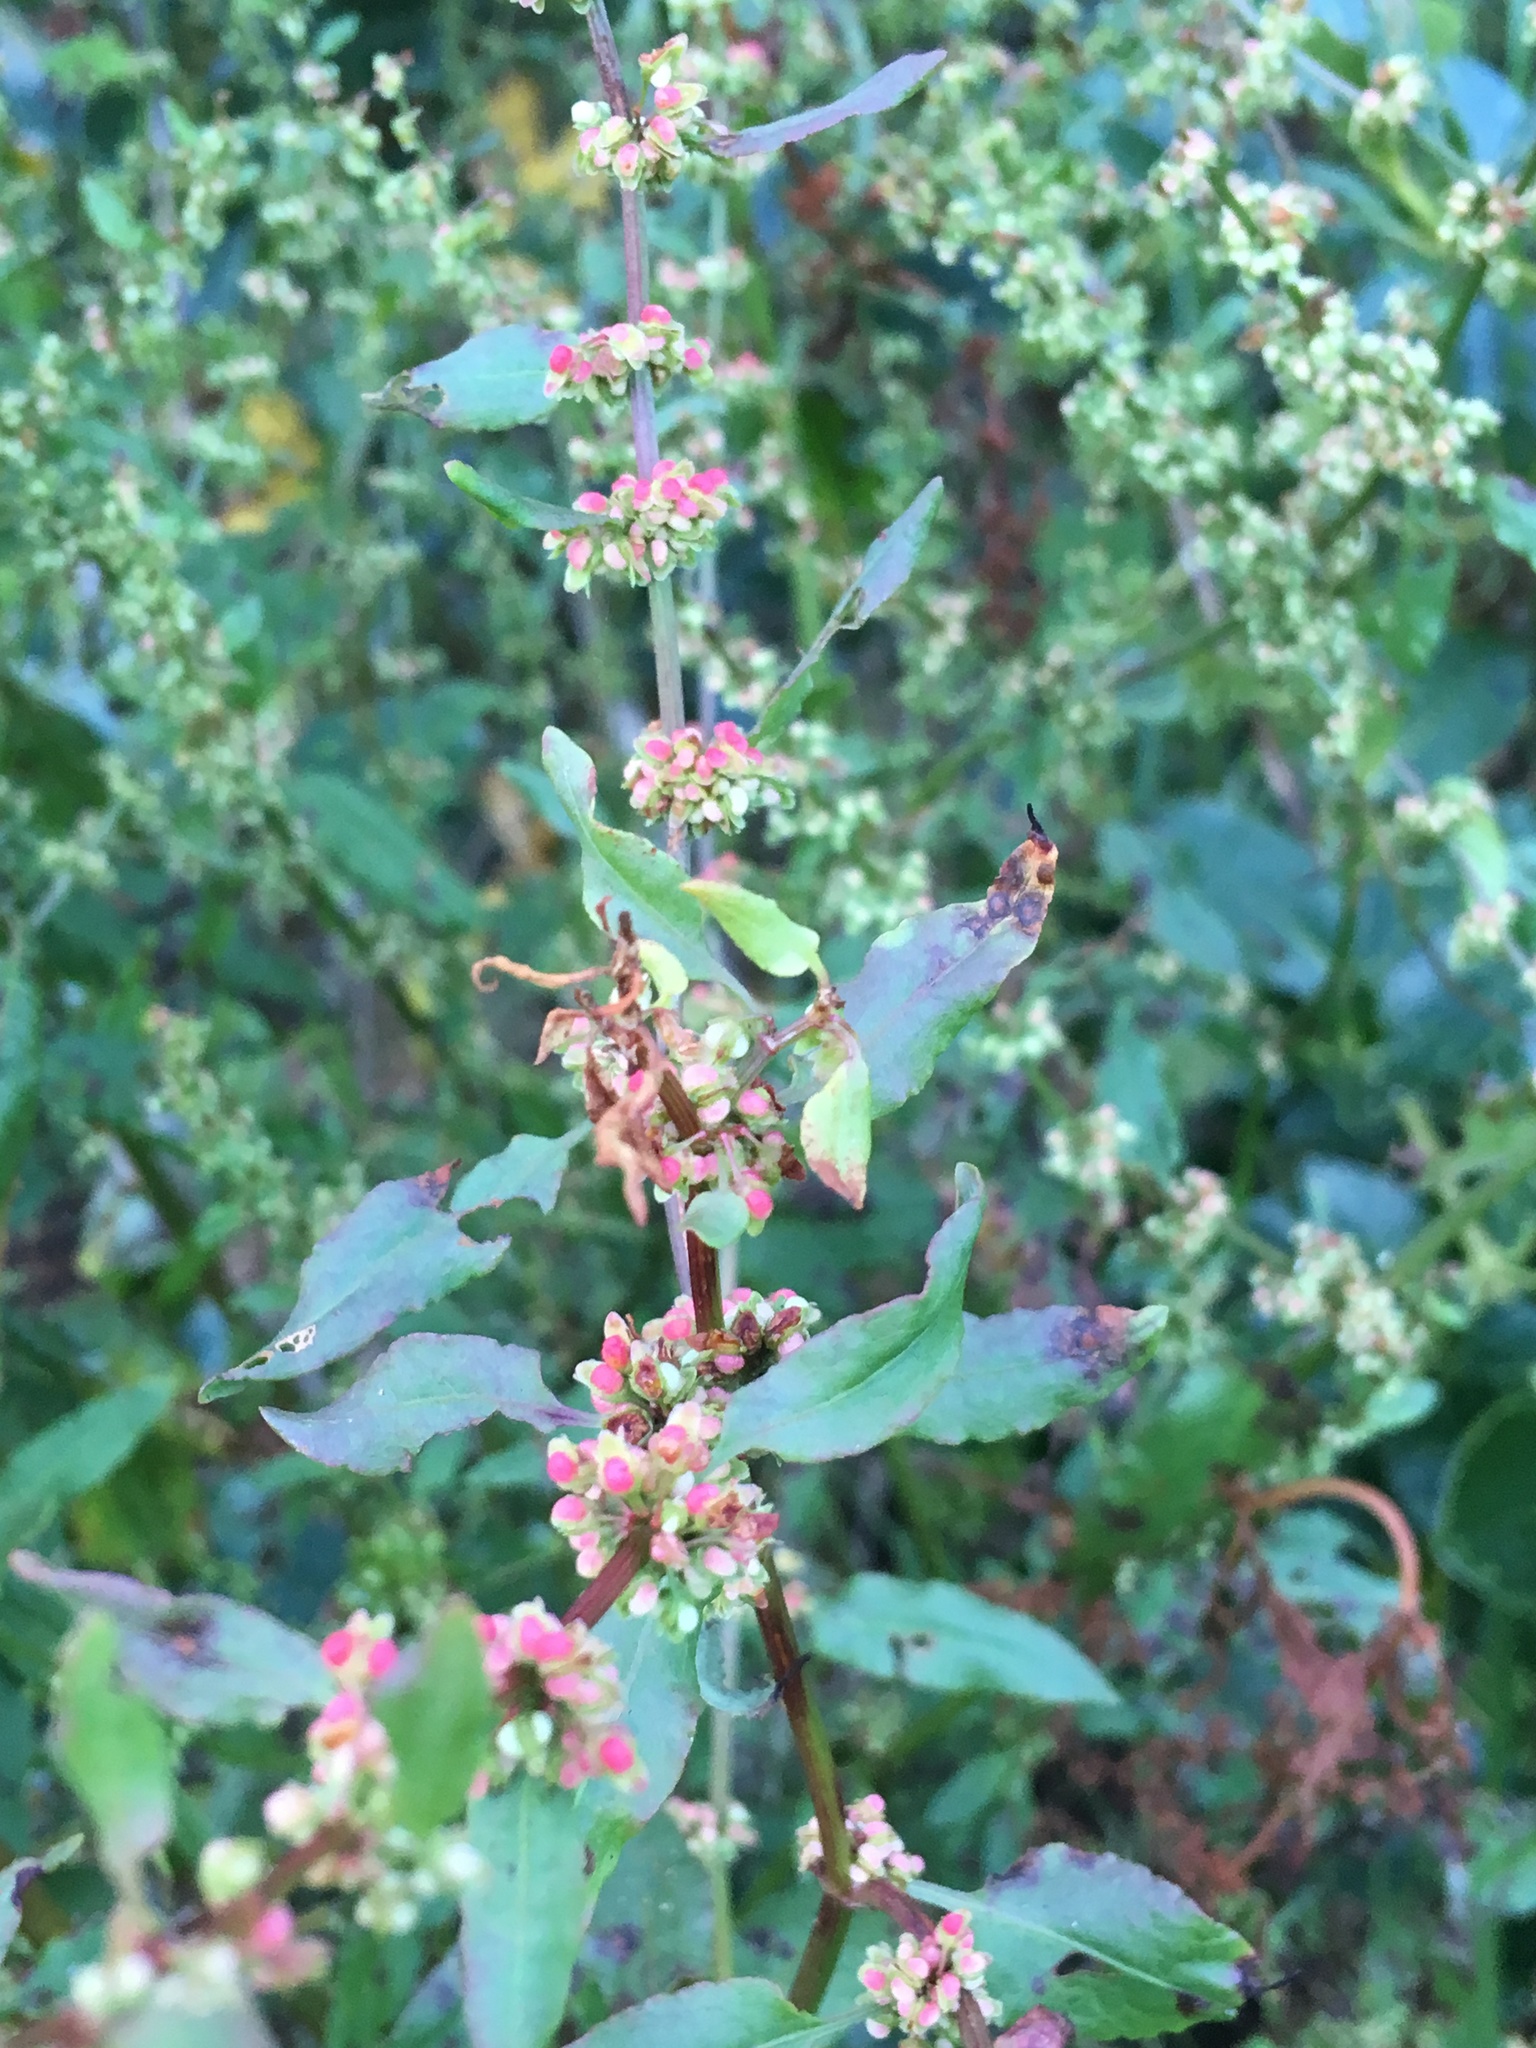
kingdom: Plantae
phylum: Tracheophyta
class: Magnoliopsida
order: Caryophyllales
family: Polygonaceae
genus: Rumex
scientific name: Rumex sagittatus
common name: Climbing dock
